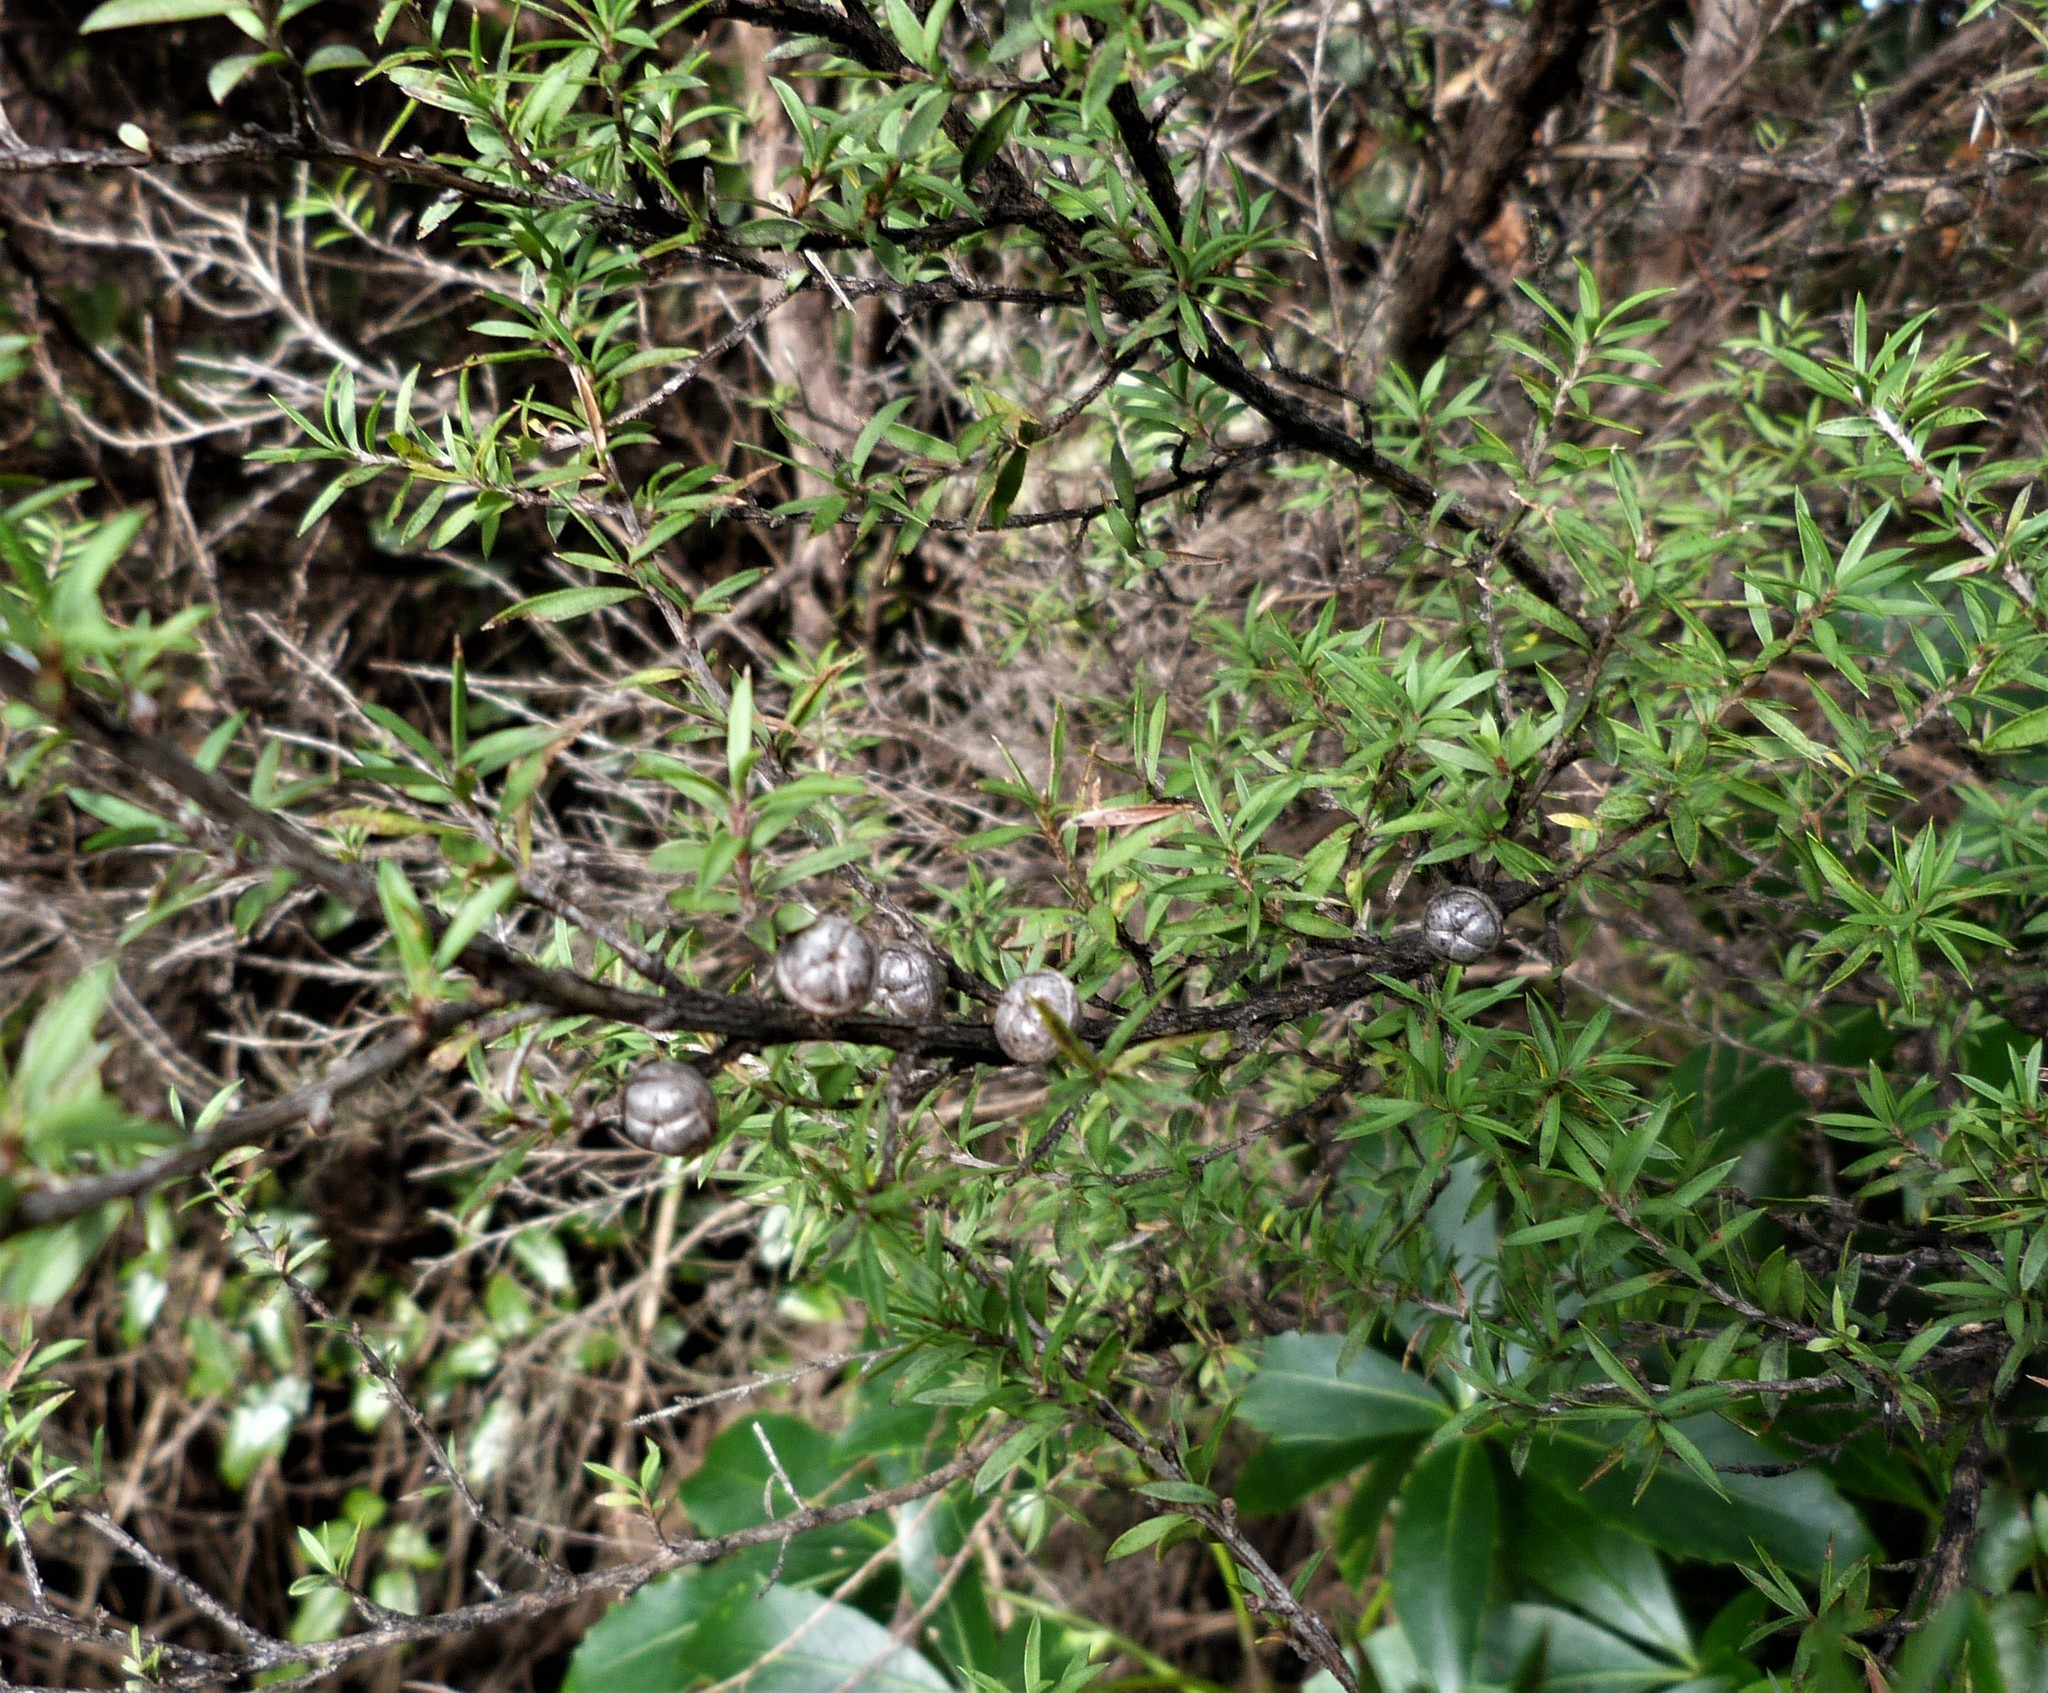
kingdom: Plantae
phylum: Tracheophyta
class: Magnoliopsida
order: Myrtales
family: Myrtaceae
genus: Leptospermum
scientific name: Leptospermum scoparium
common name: Broom tea-tree
